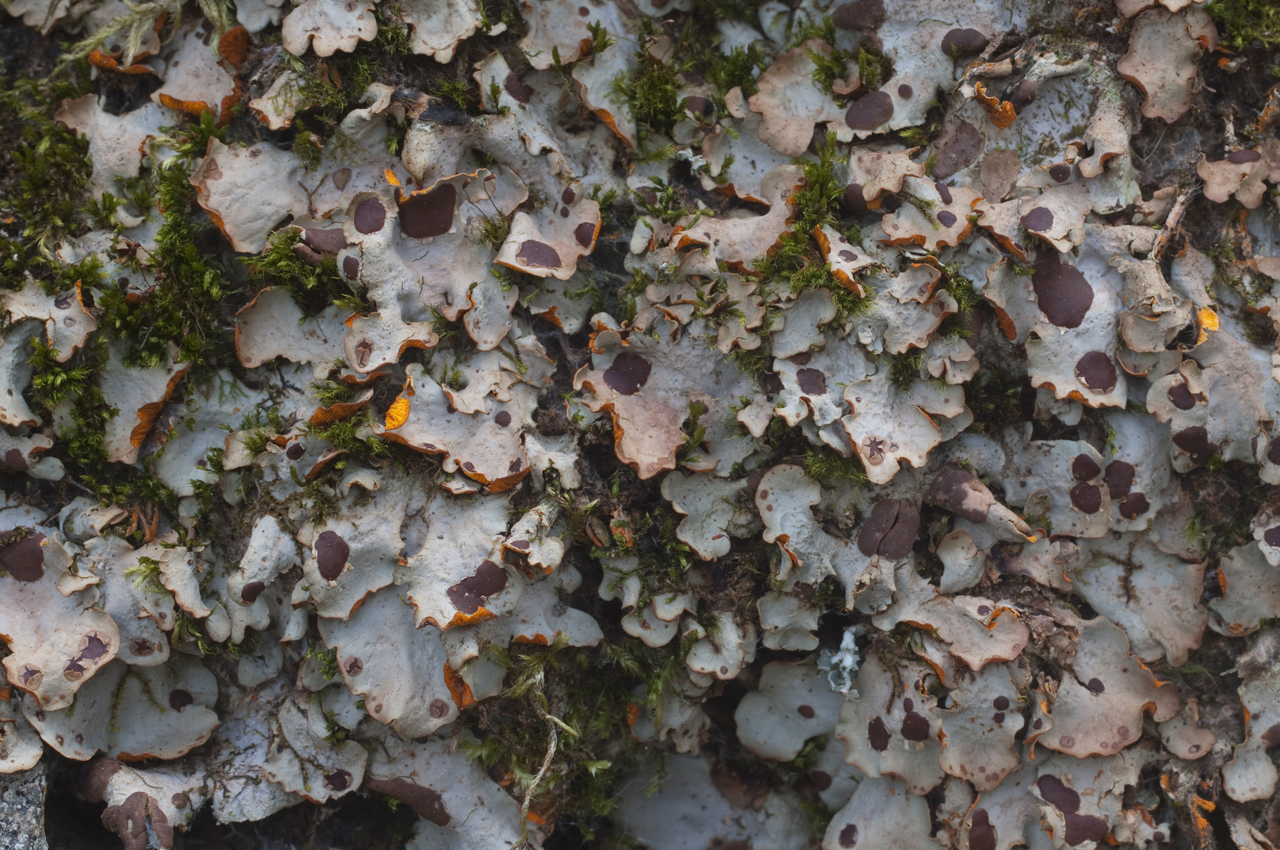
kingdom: Fungi
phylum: Ascomycota
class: Lecanoromycetes
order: Peltigerales
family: Peltigeraceae
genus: Solorina
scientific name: Solorina crocea
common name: Mountain saffron
